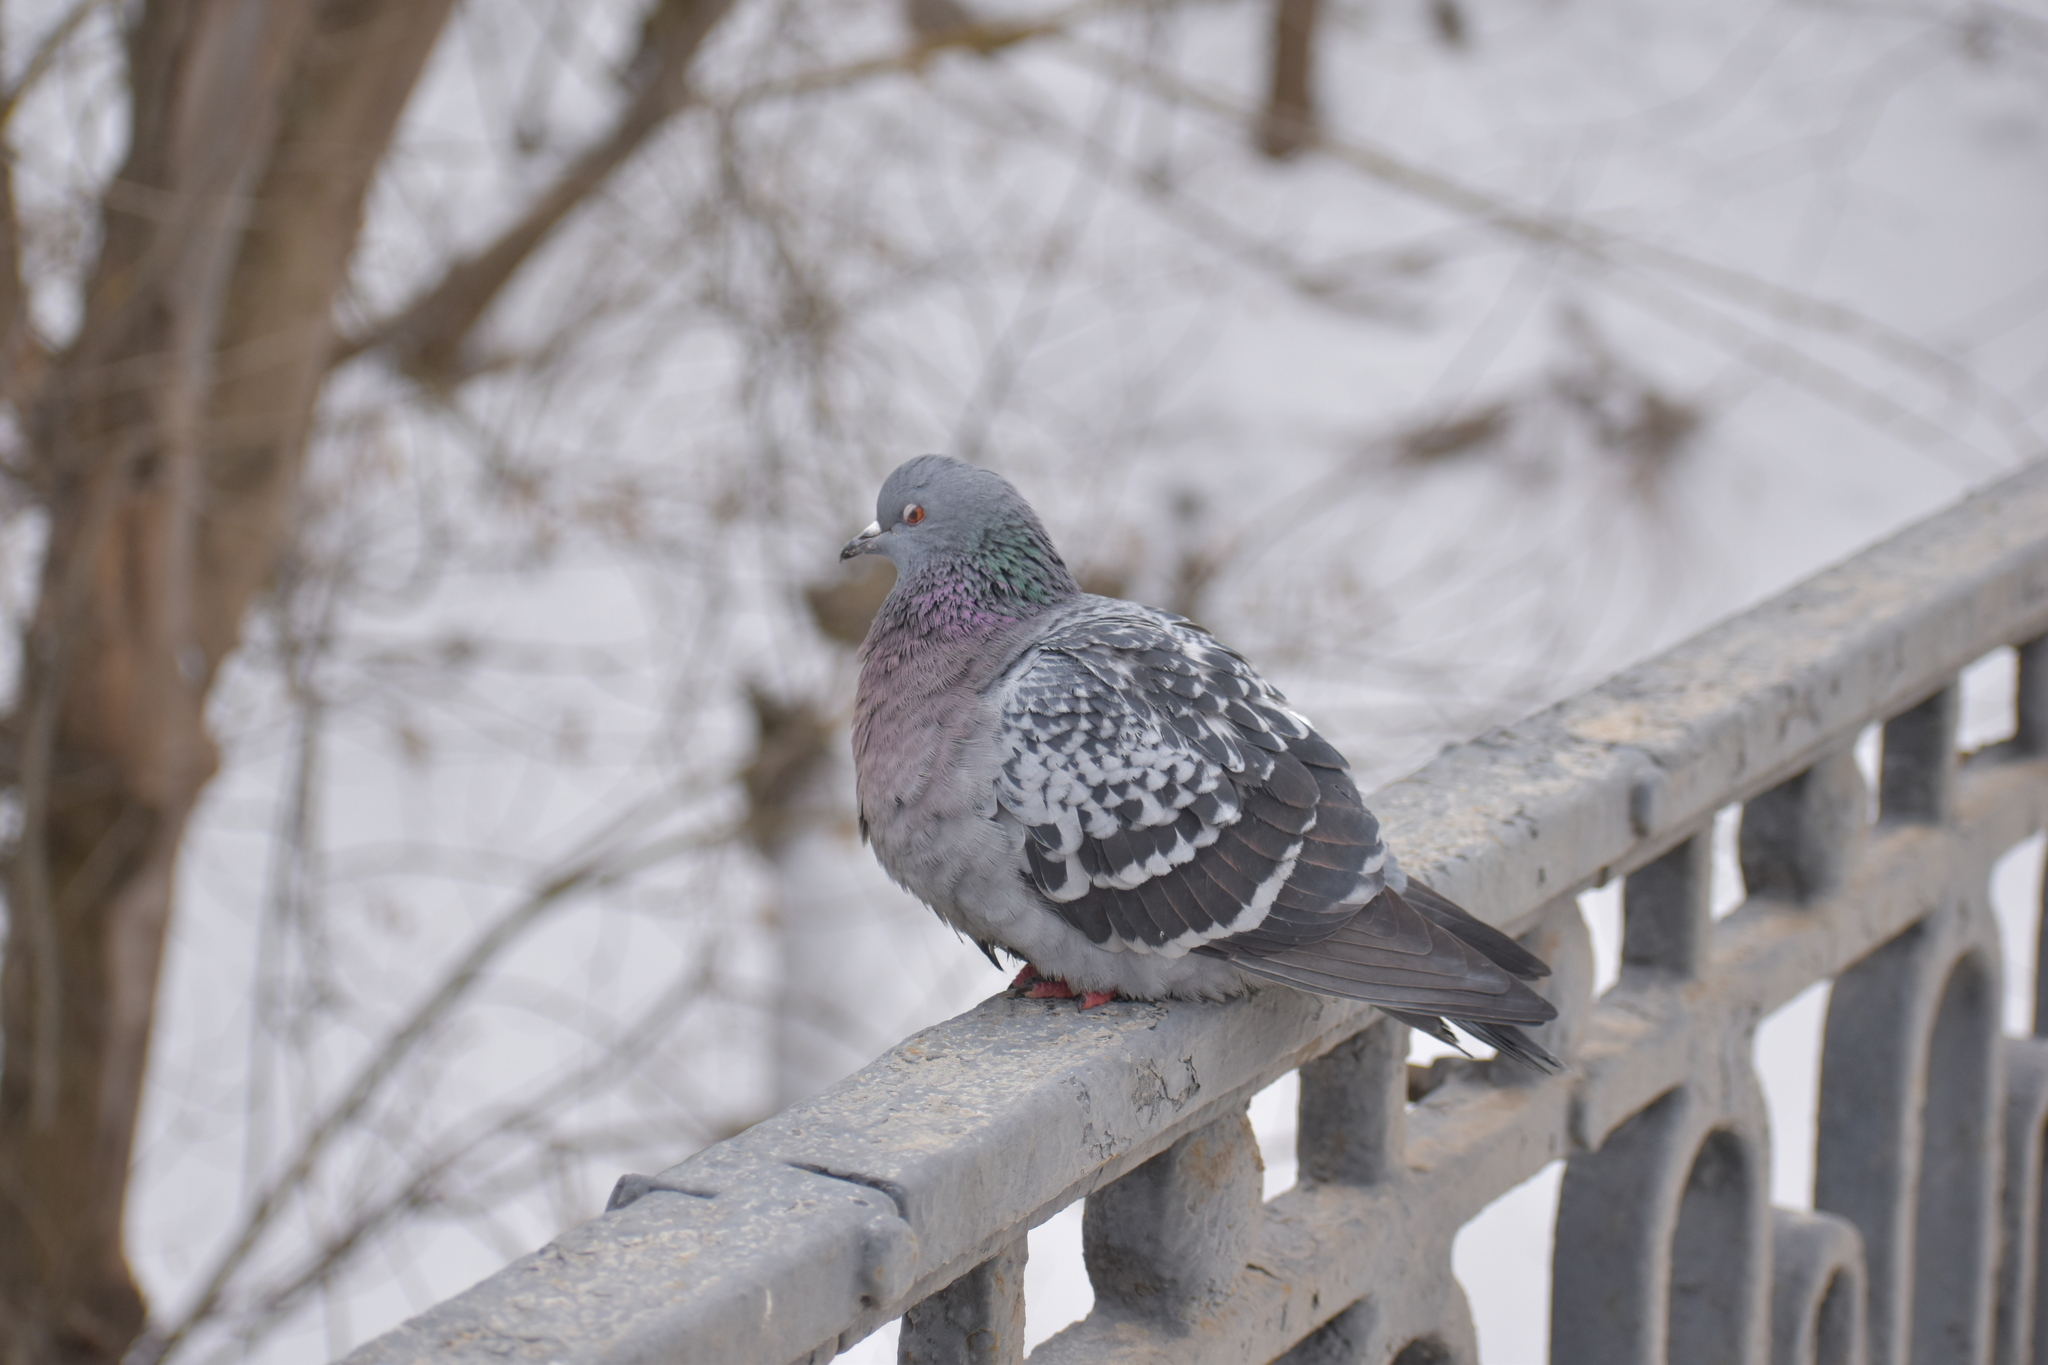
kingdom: Animalia
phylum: Chordata
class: Aves
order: Columbiformes
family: Columbidae
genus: Columba
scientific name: Columba livia
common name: Rock pigeon
